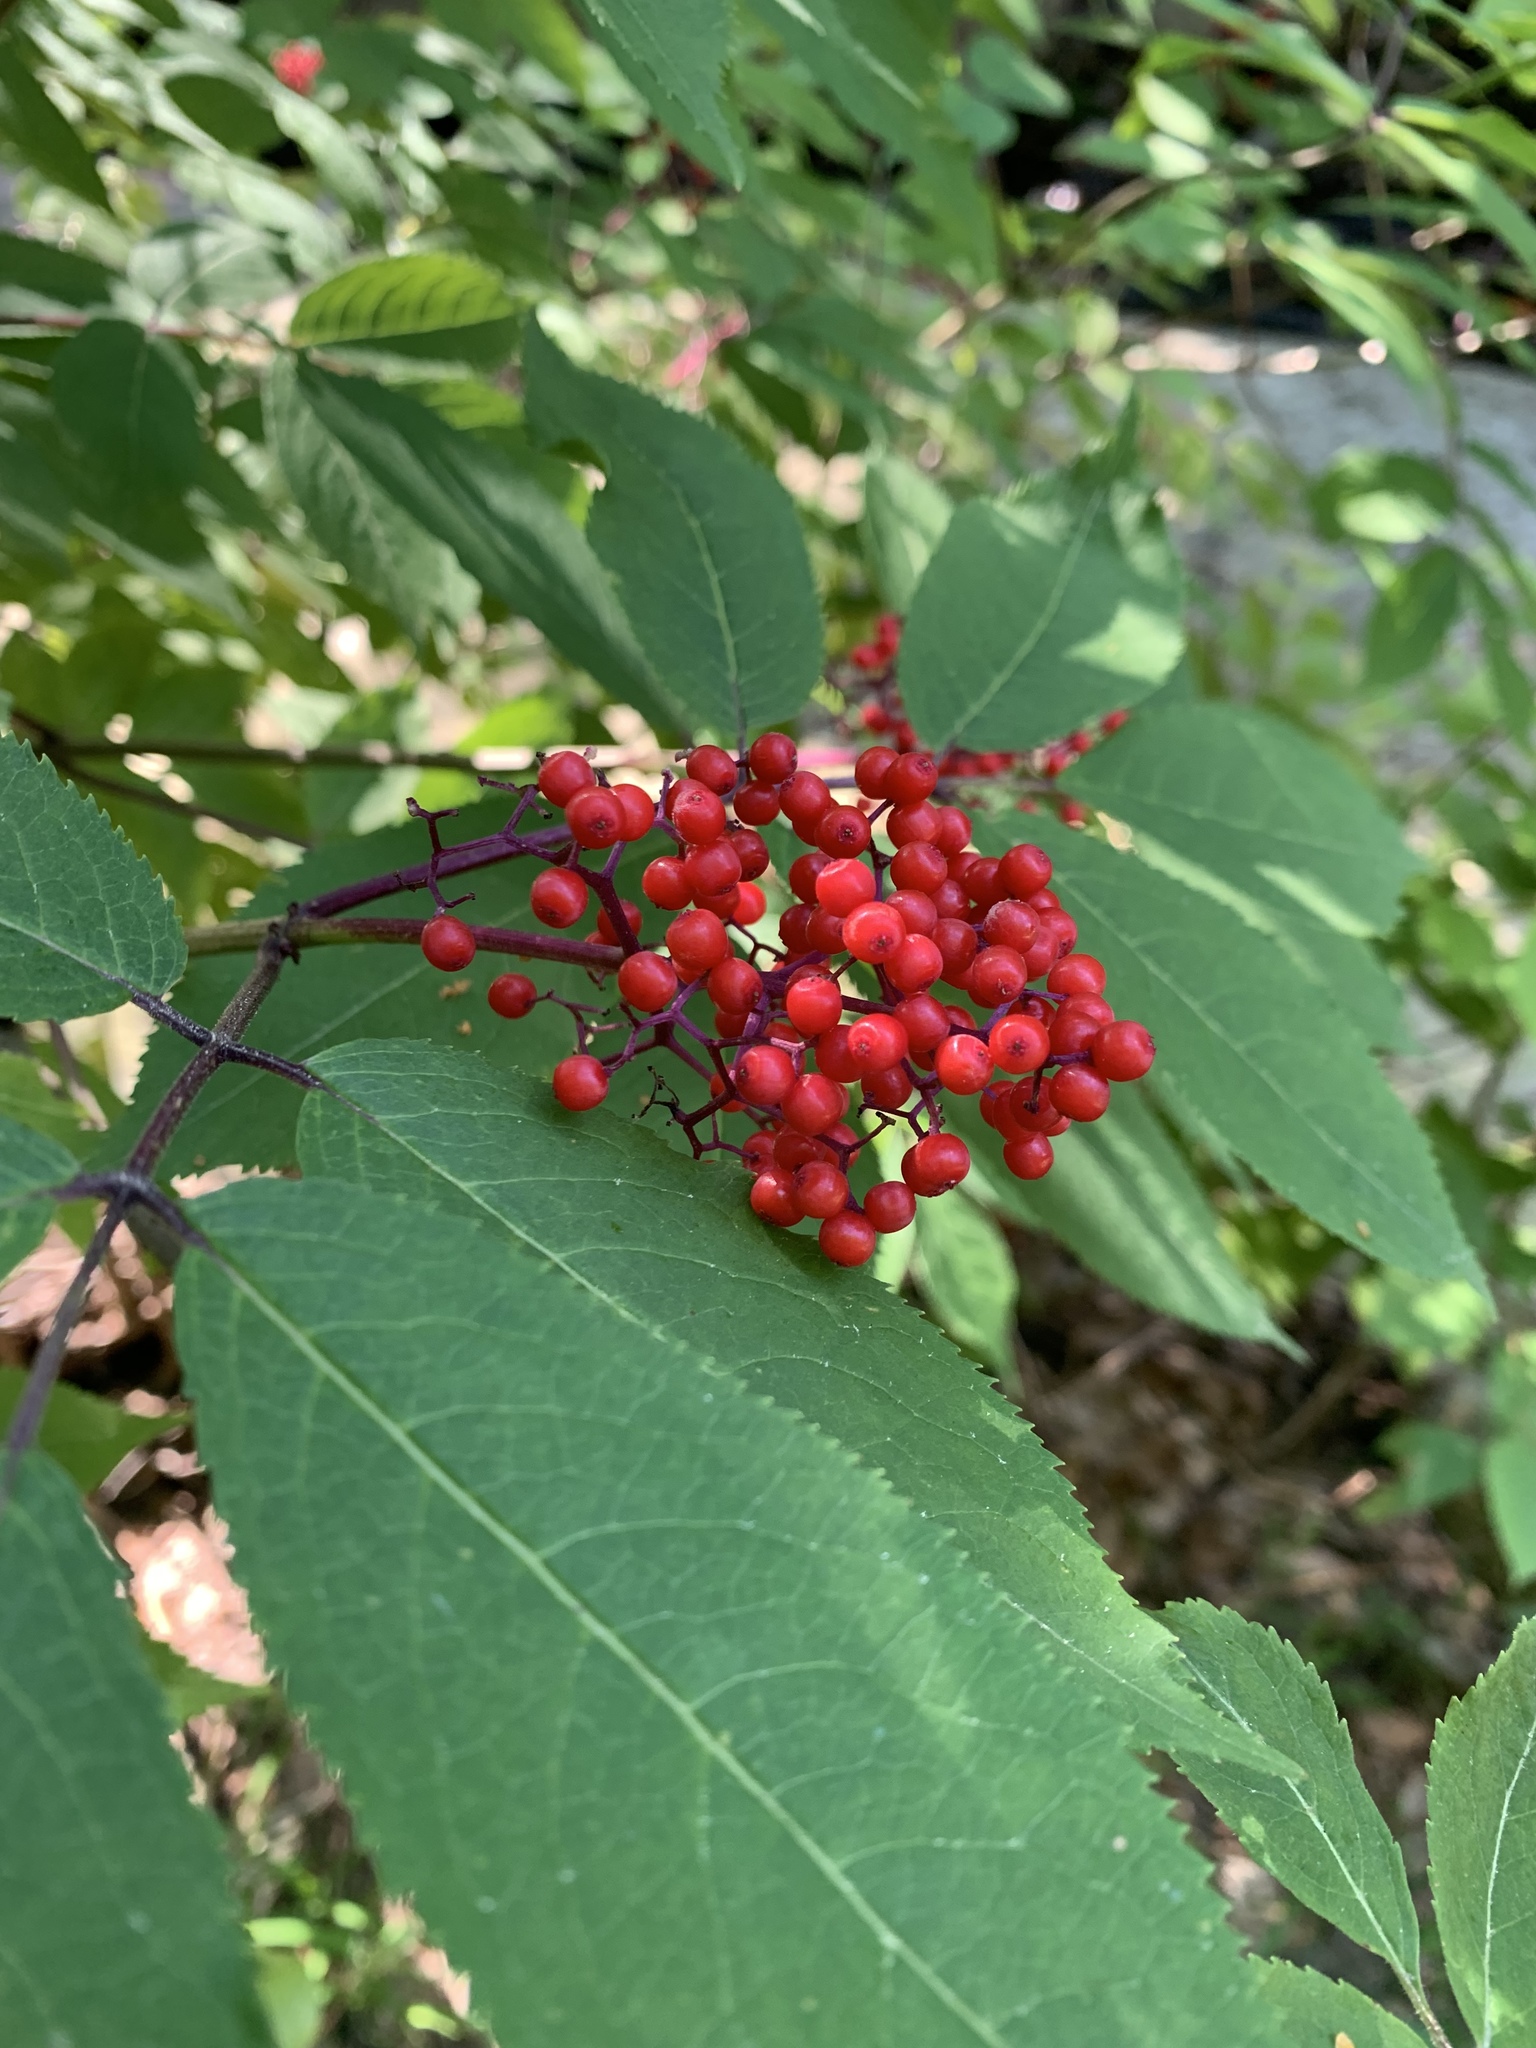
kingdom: Plantae
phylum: Tracheophyta
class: Magnoliopsida
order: Dipsacales
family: Viburnaceae
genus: Sambucus
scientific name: Sambucus racemosa
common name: Red-berried elder
